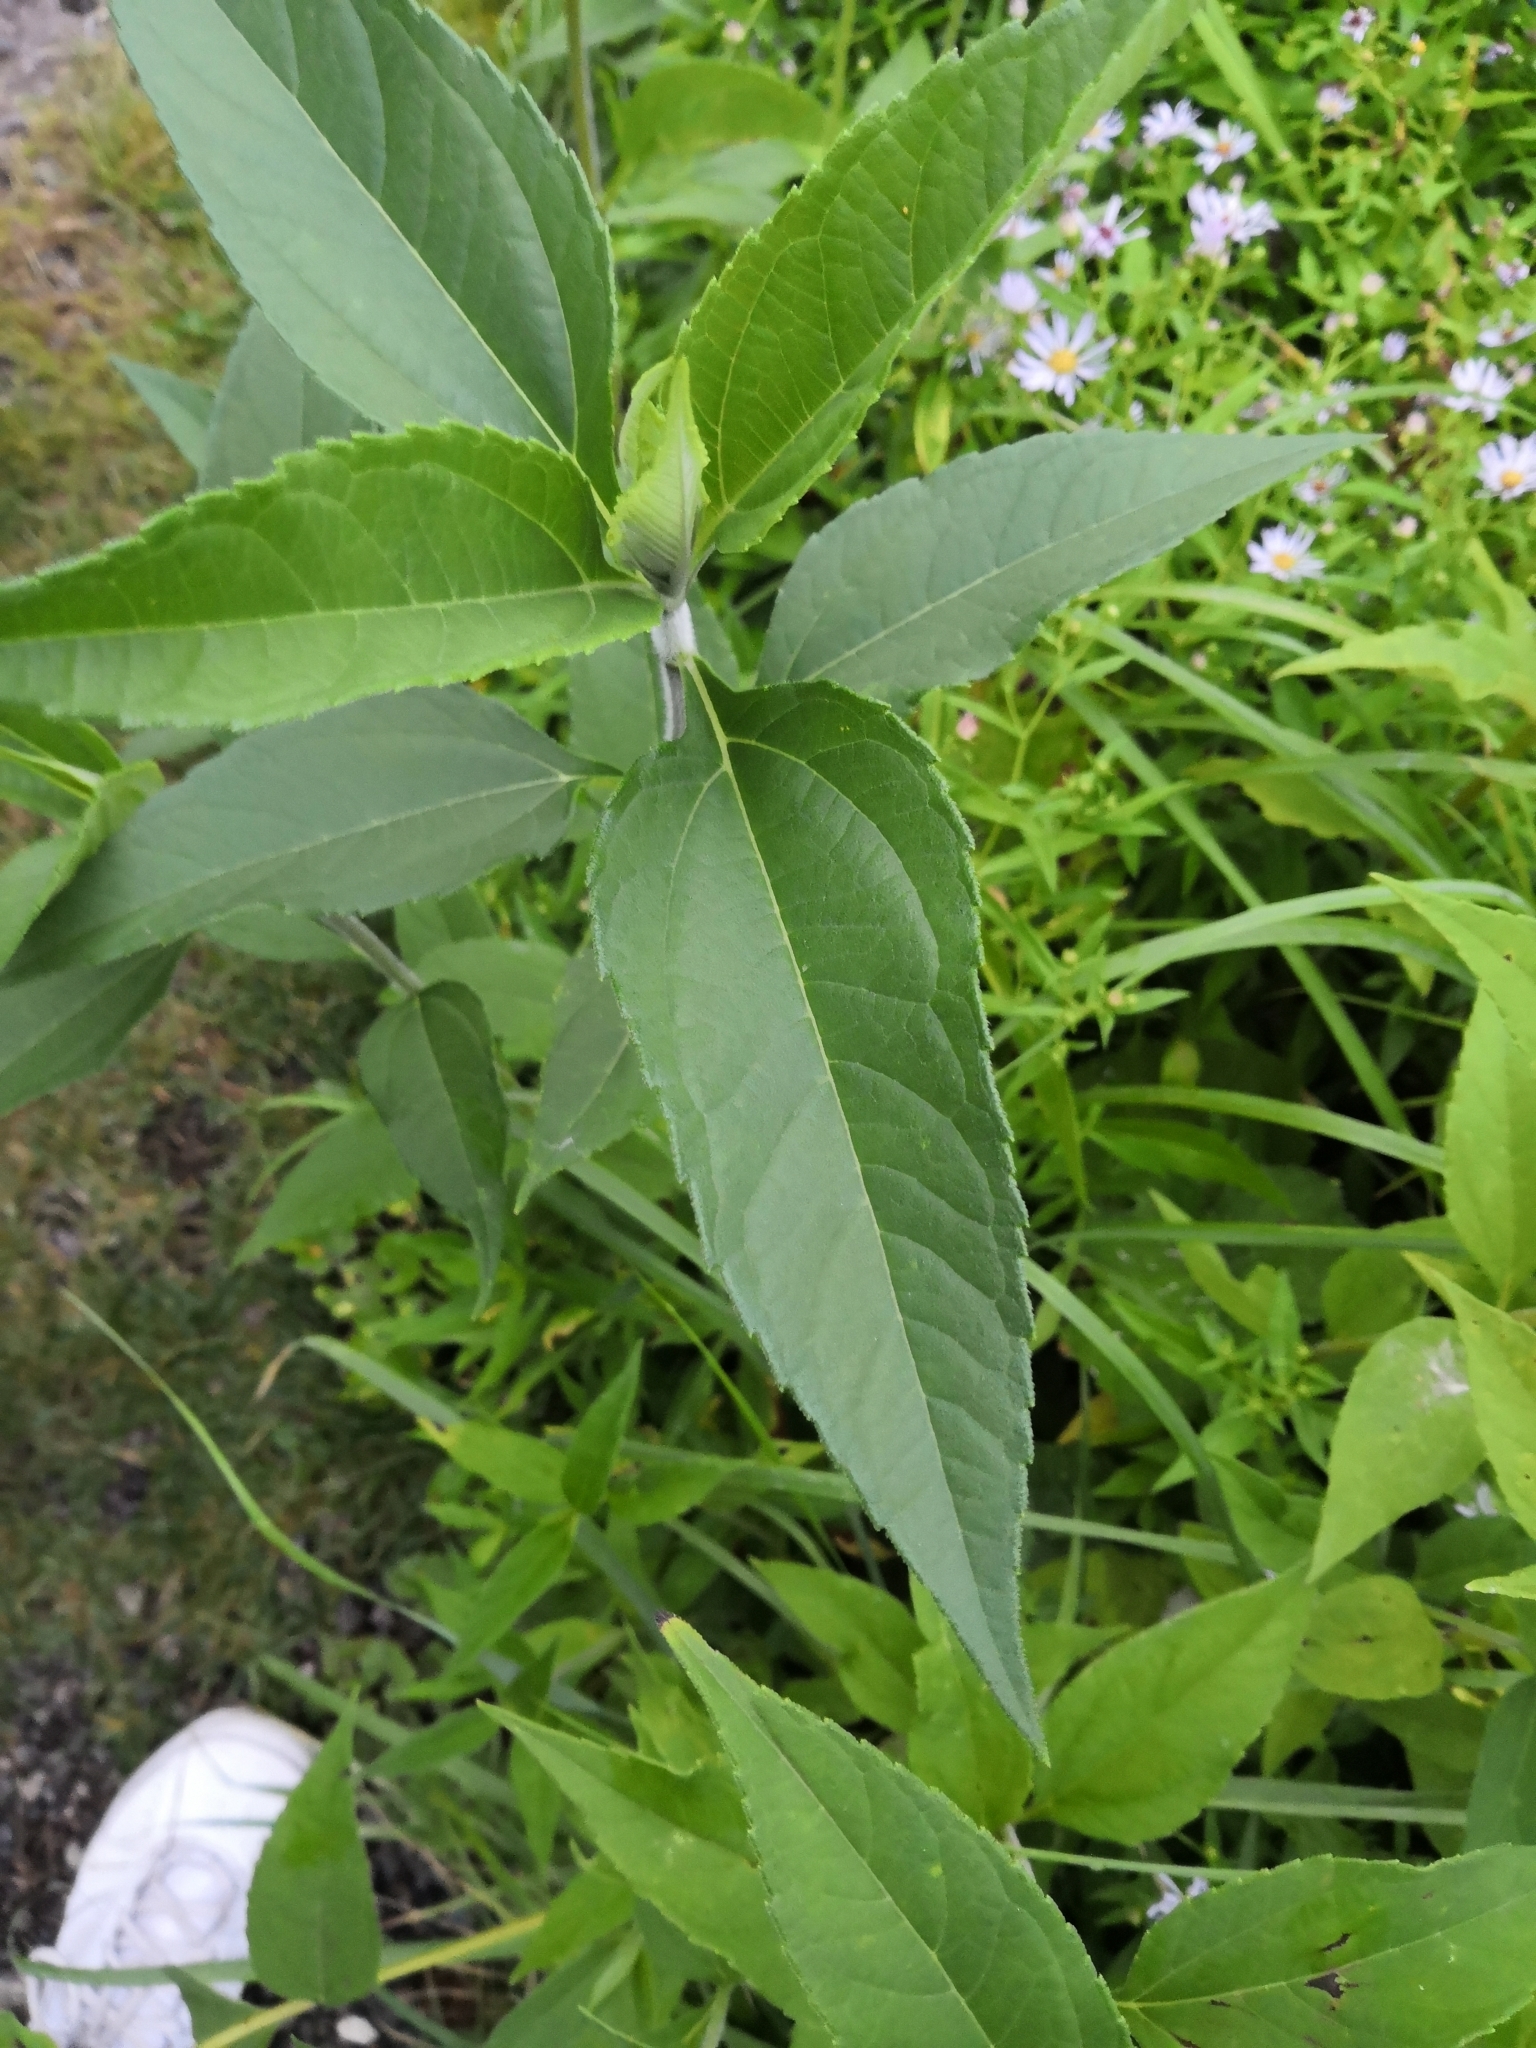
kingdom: Plantae
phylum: Tracheophyta
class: Magnoliopsida
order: Asterales
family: Asteraceae
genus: Helianthus
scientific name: Helianthus tuberosus
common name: Jerusalem artichoke
